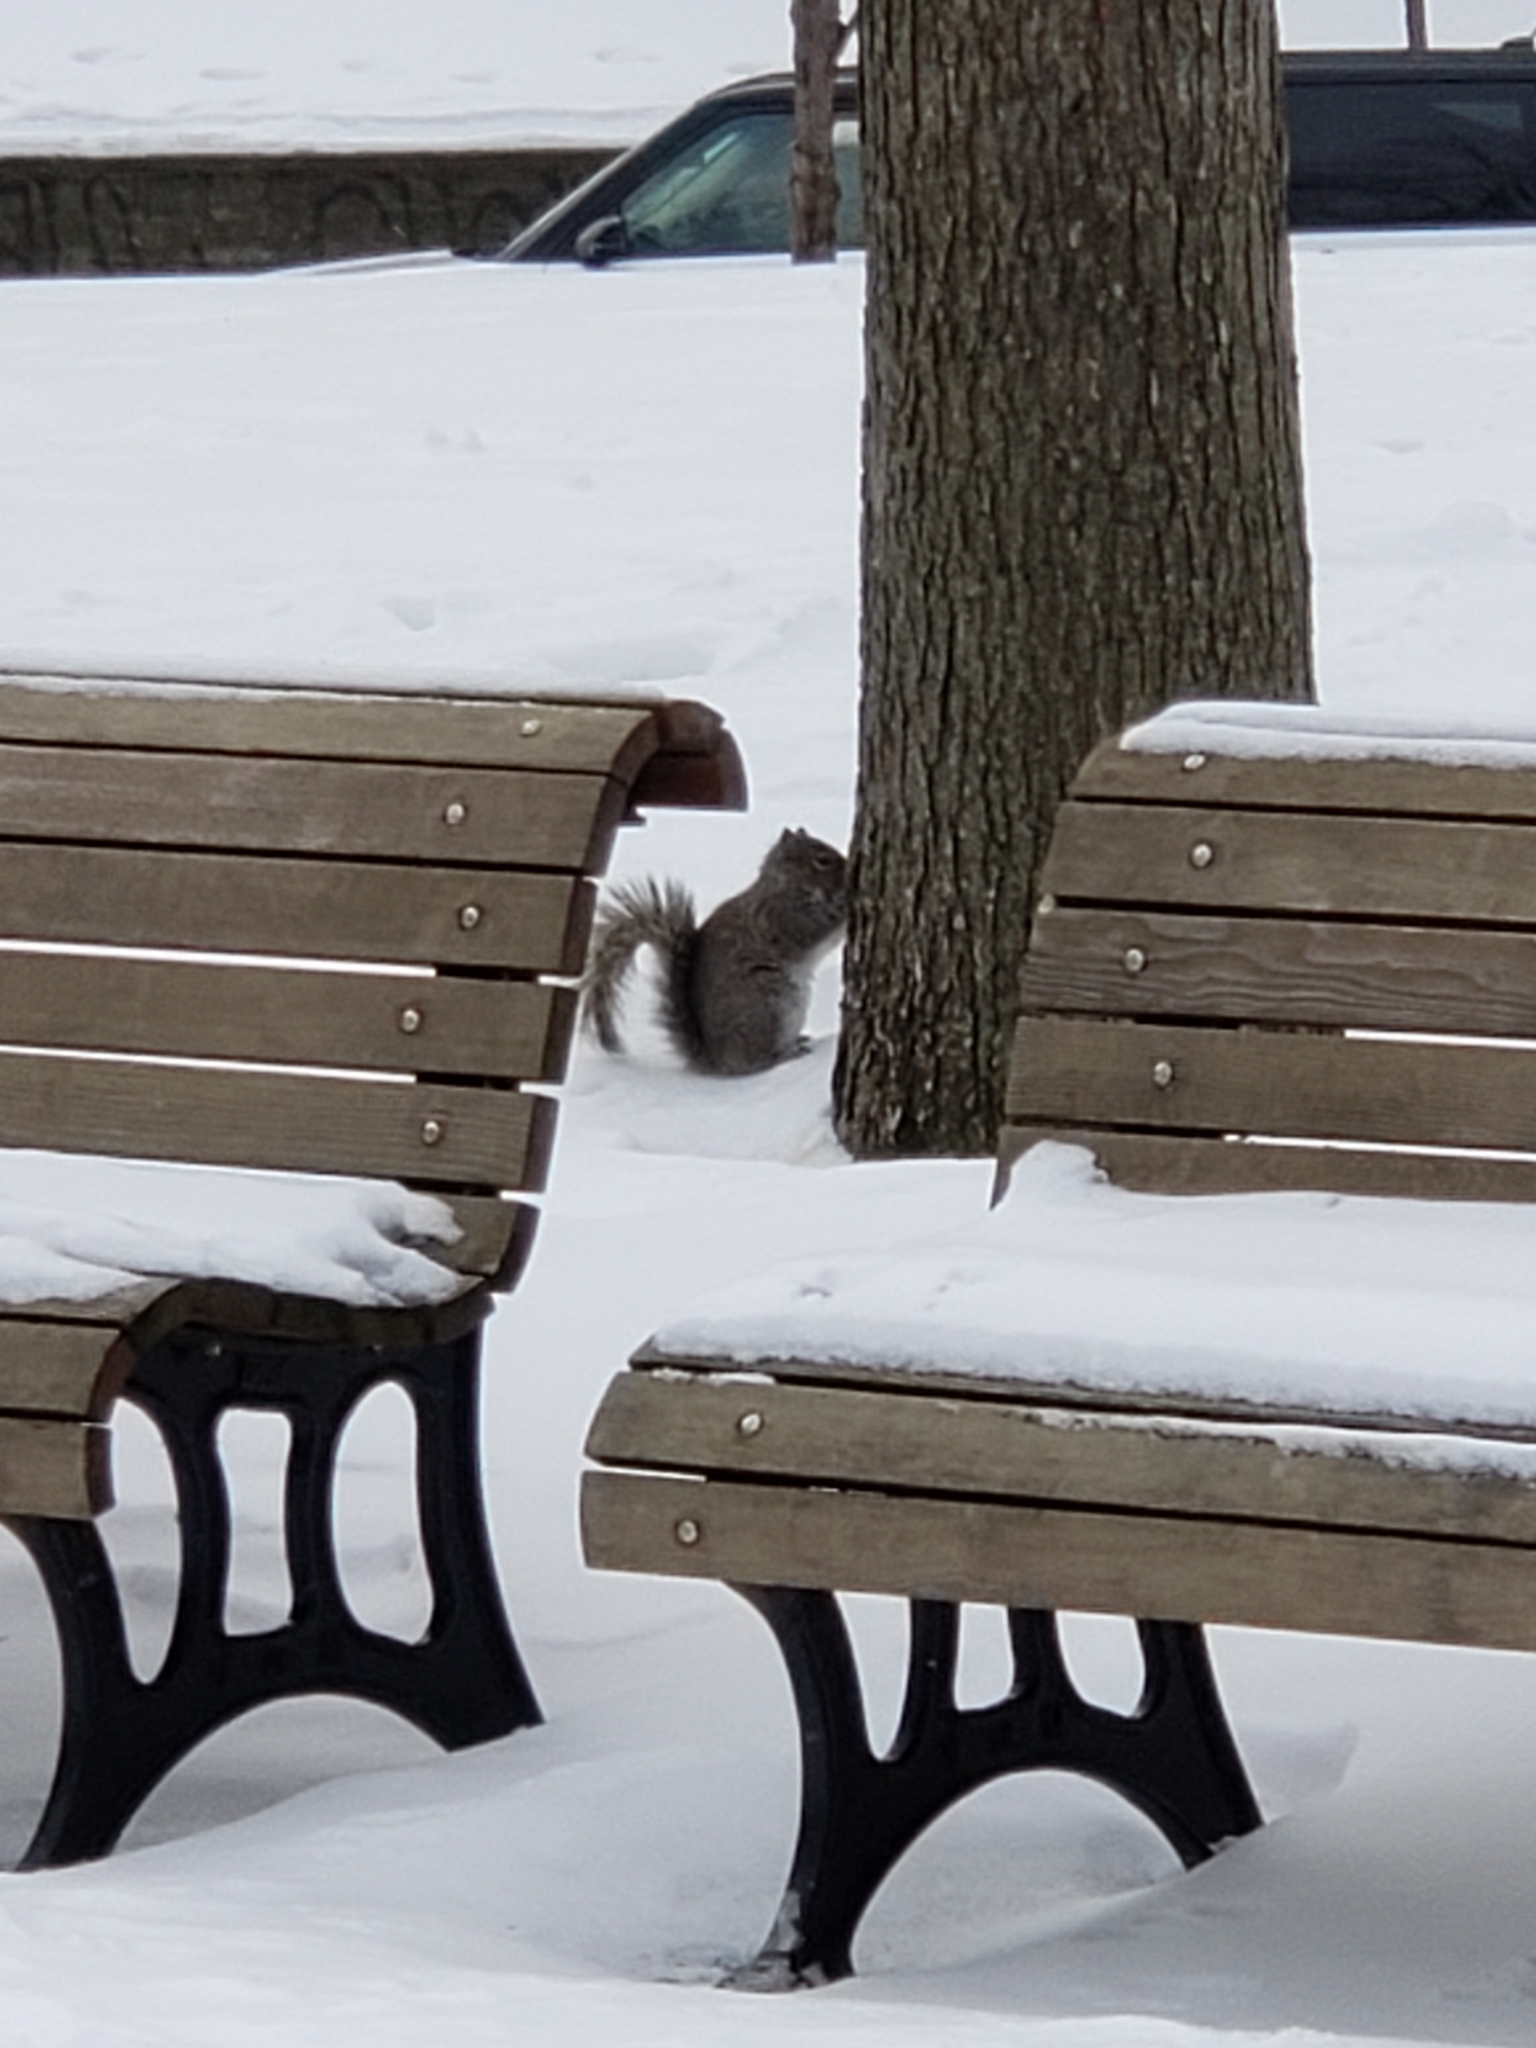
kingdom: Animalia
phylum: Chordata
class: Mammalia
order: Rodentia
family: Sciuridae
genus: Sciurus
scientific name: Sciurus carolinensis
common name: Eastern gray squirrel
